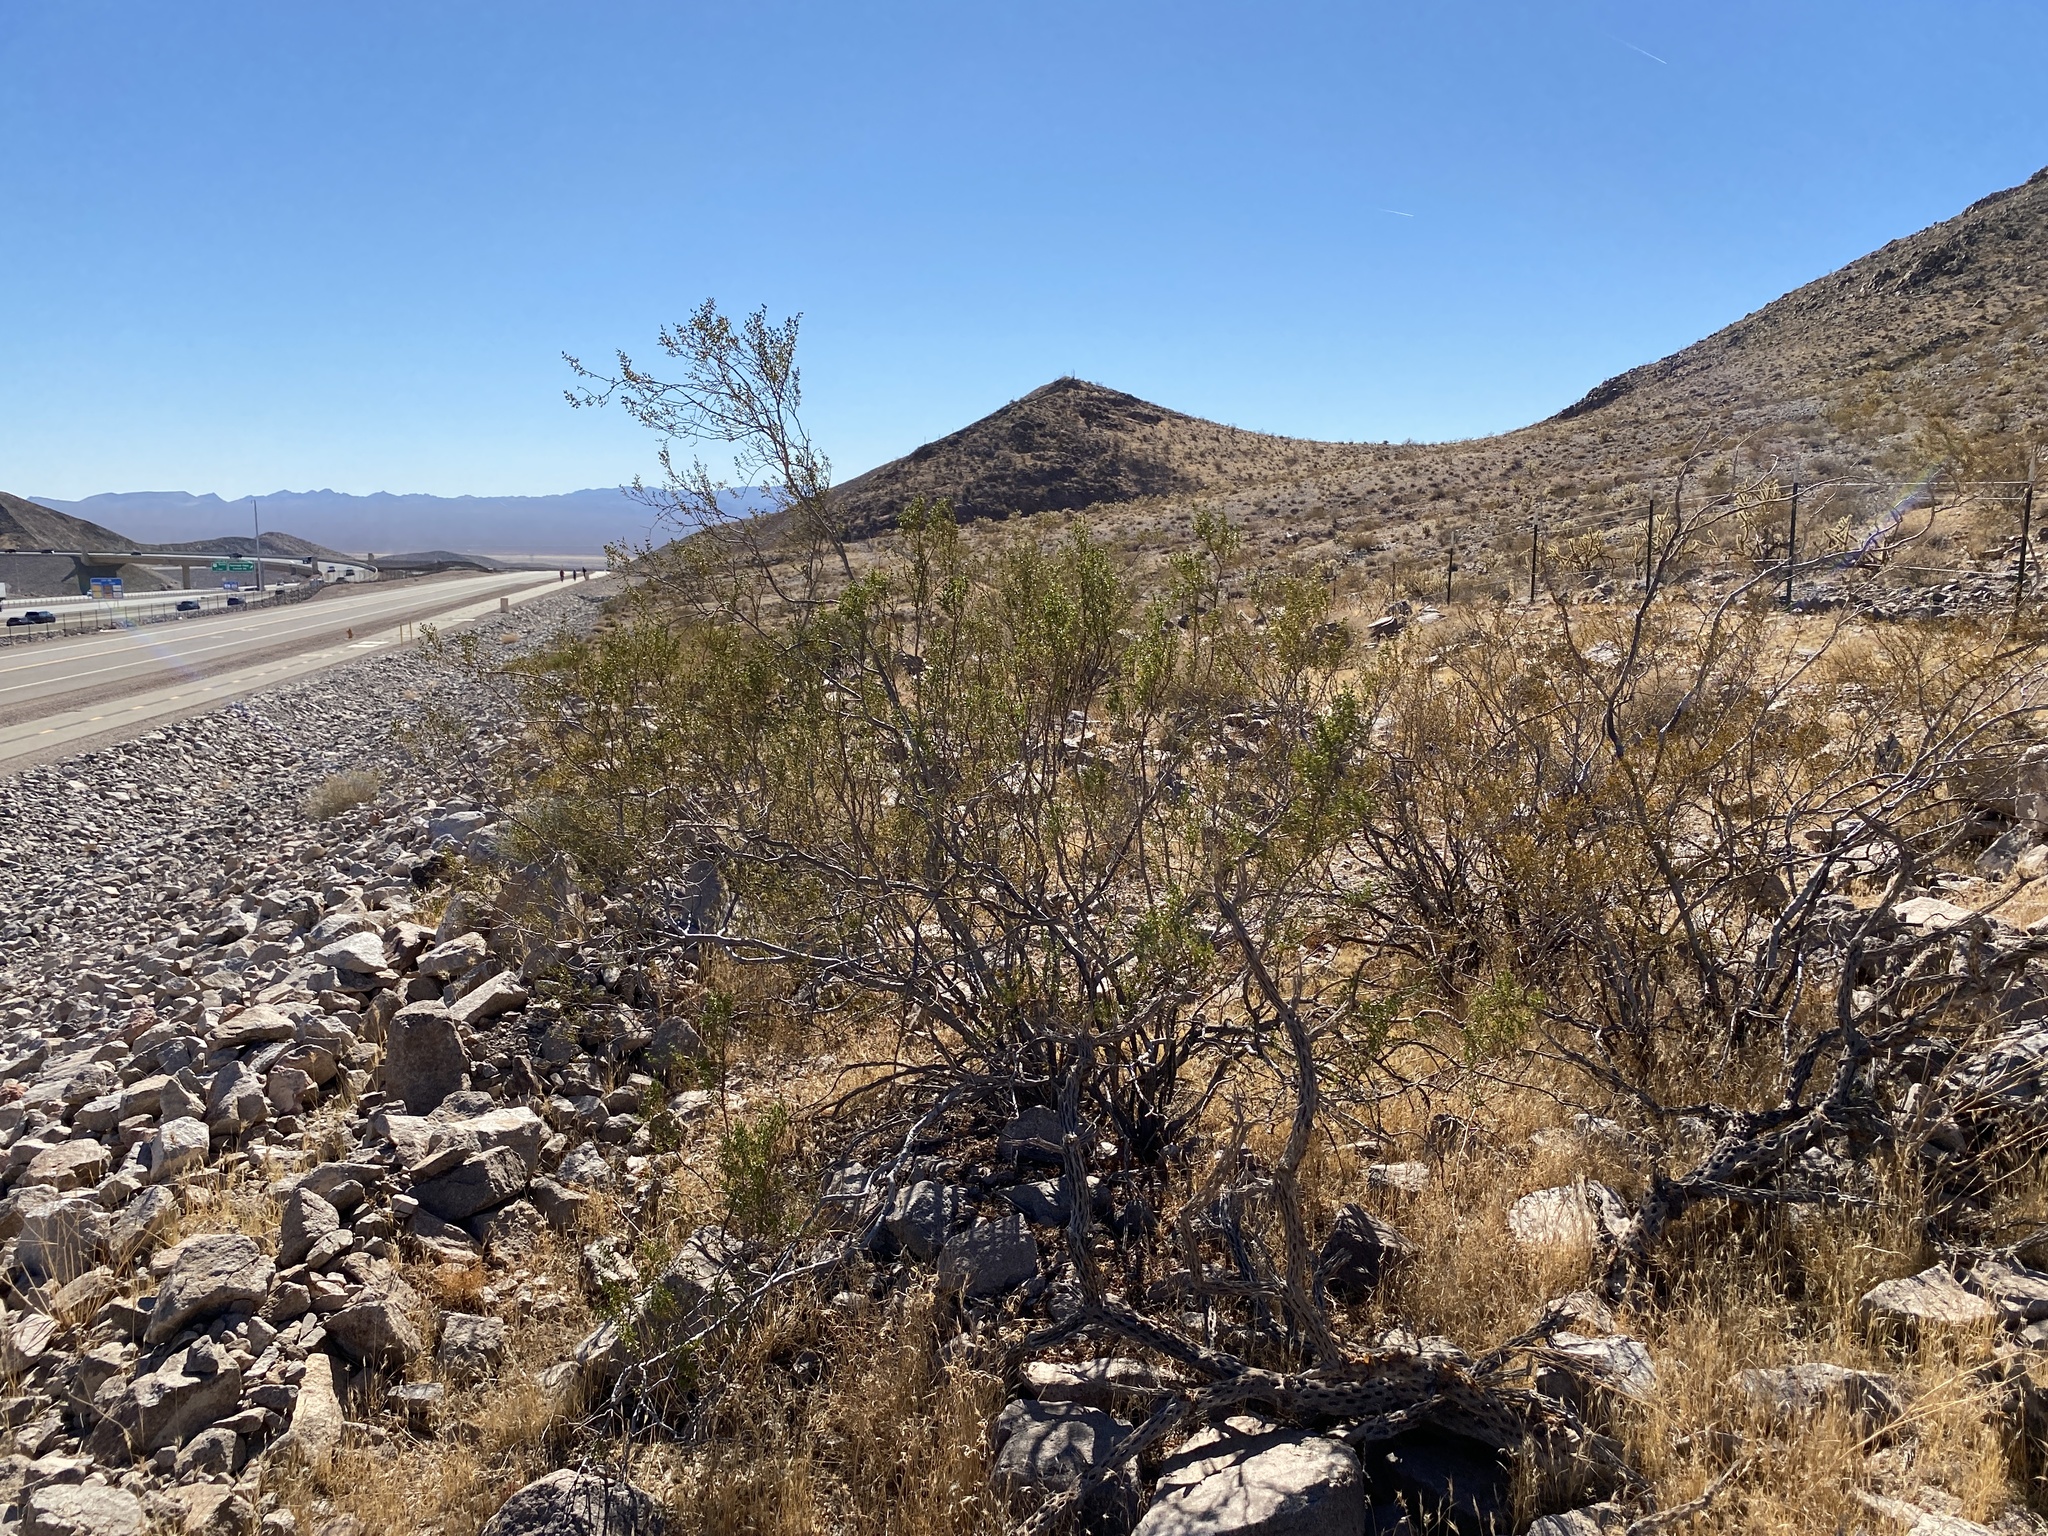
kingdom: Plantae
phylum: Tracheophyta
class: Magnoliopsida
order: Zygophyllales
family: Zygophyllaceae
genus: Larrea
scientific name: Larrea tridentata
